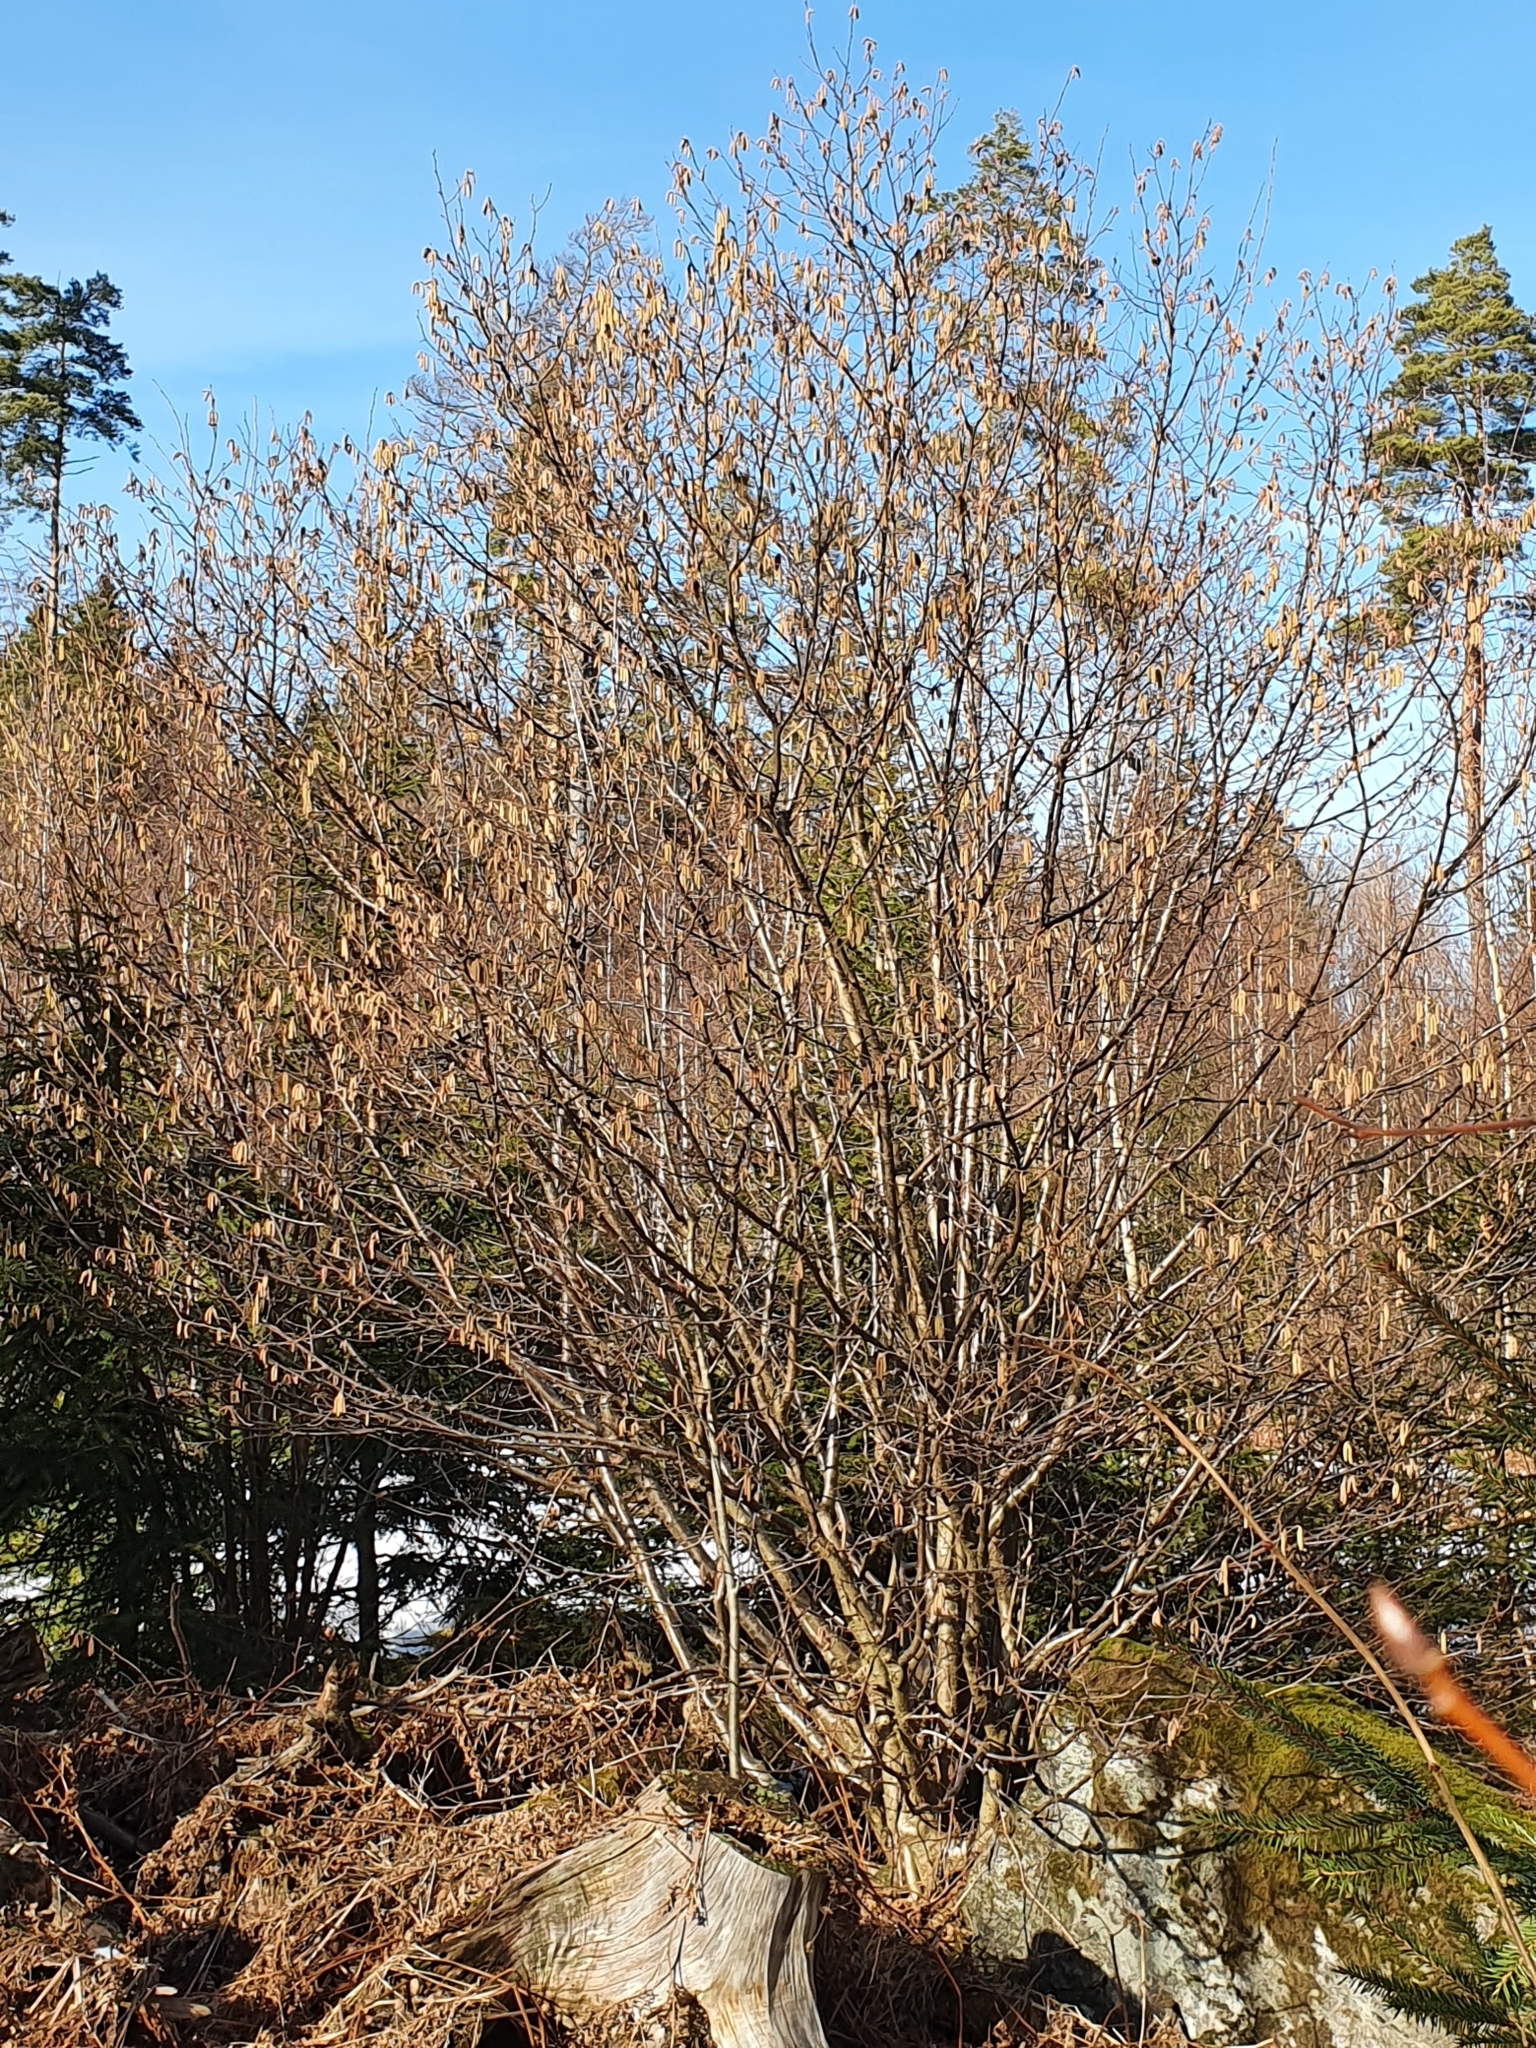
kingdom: Plantae
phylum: Tracheophyta
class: Magnoliopsida
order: Fagales
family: Betulaceae
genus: Corylus
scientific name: Corylus avellana
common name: European hazel
